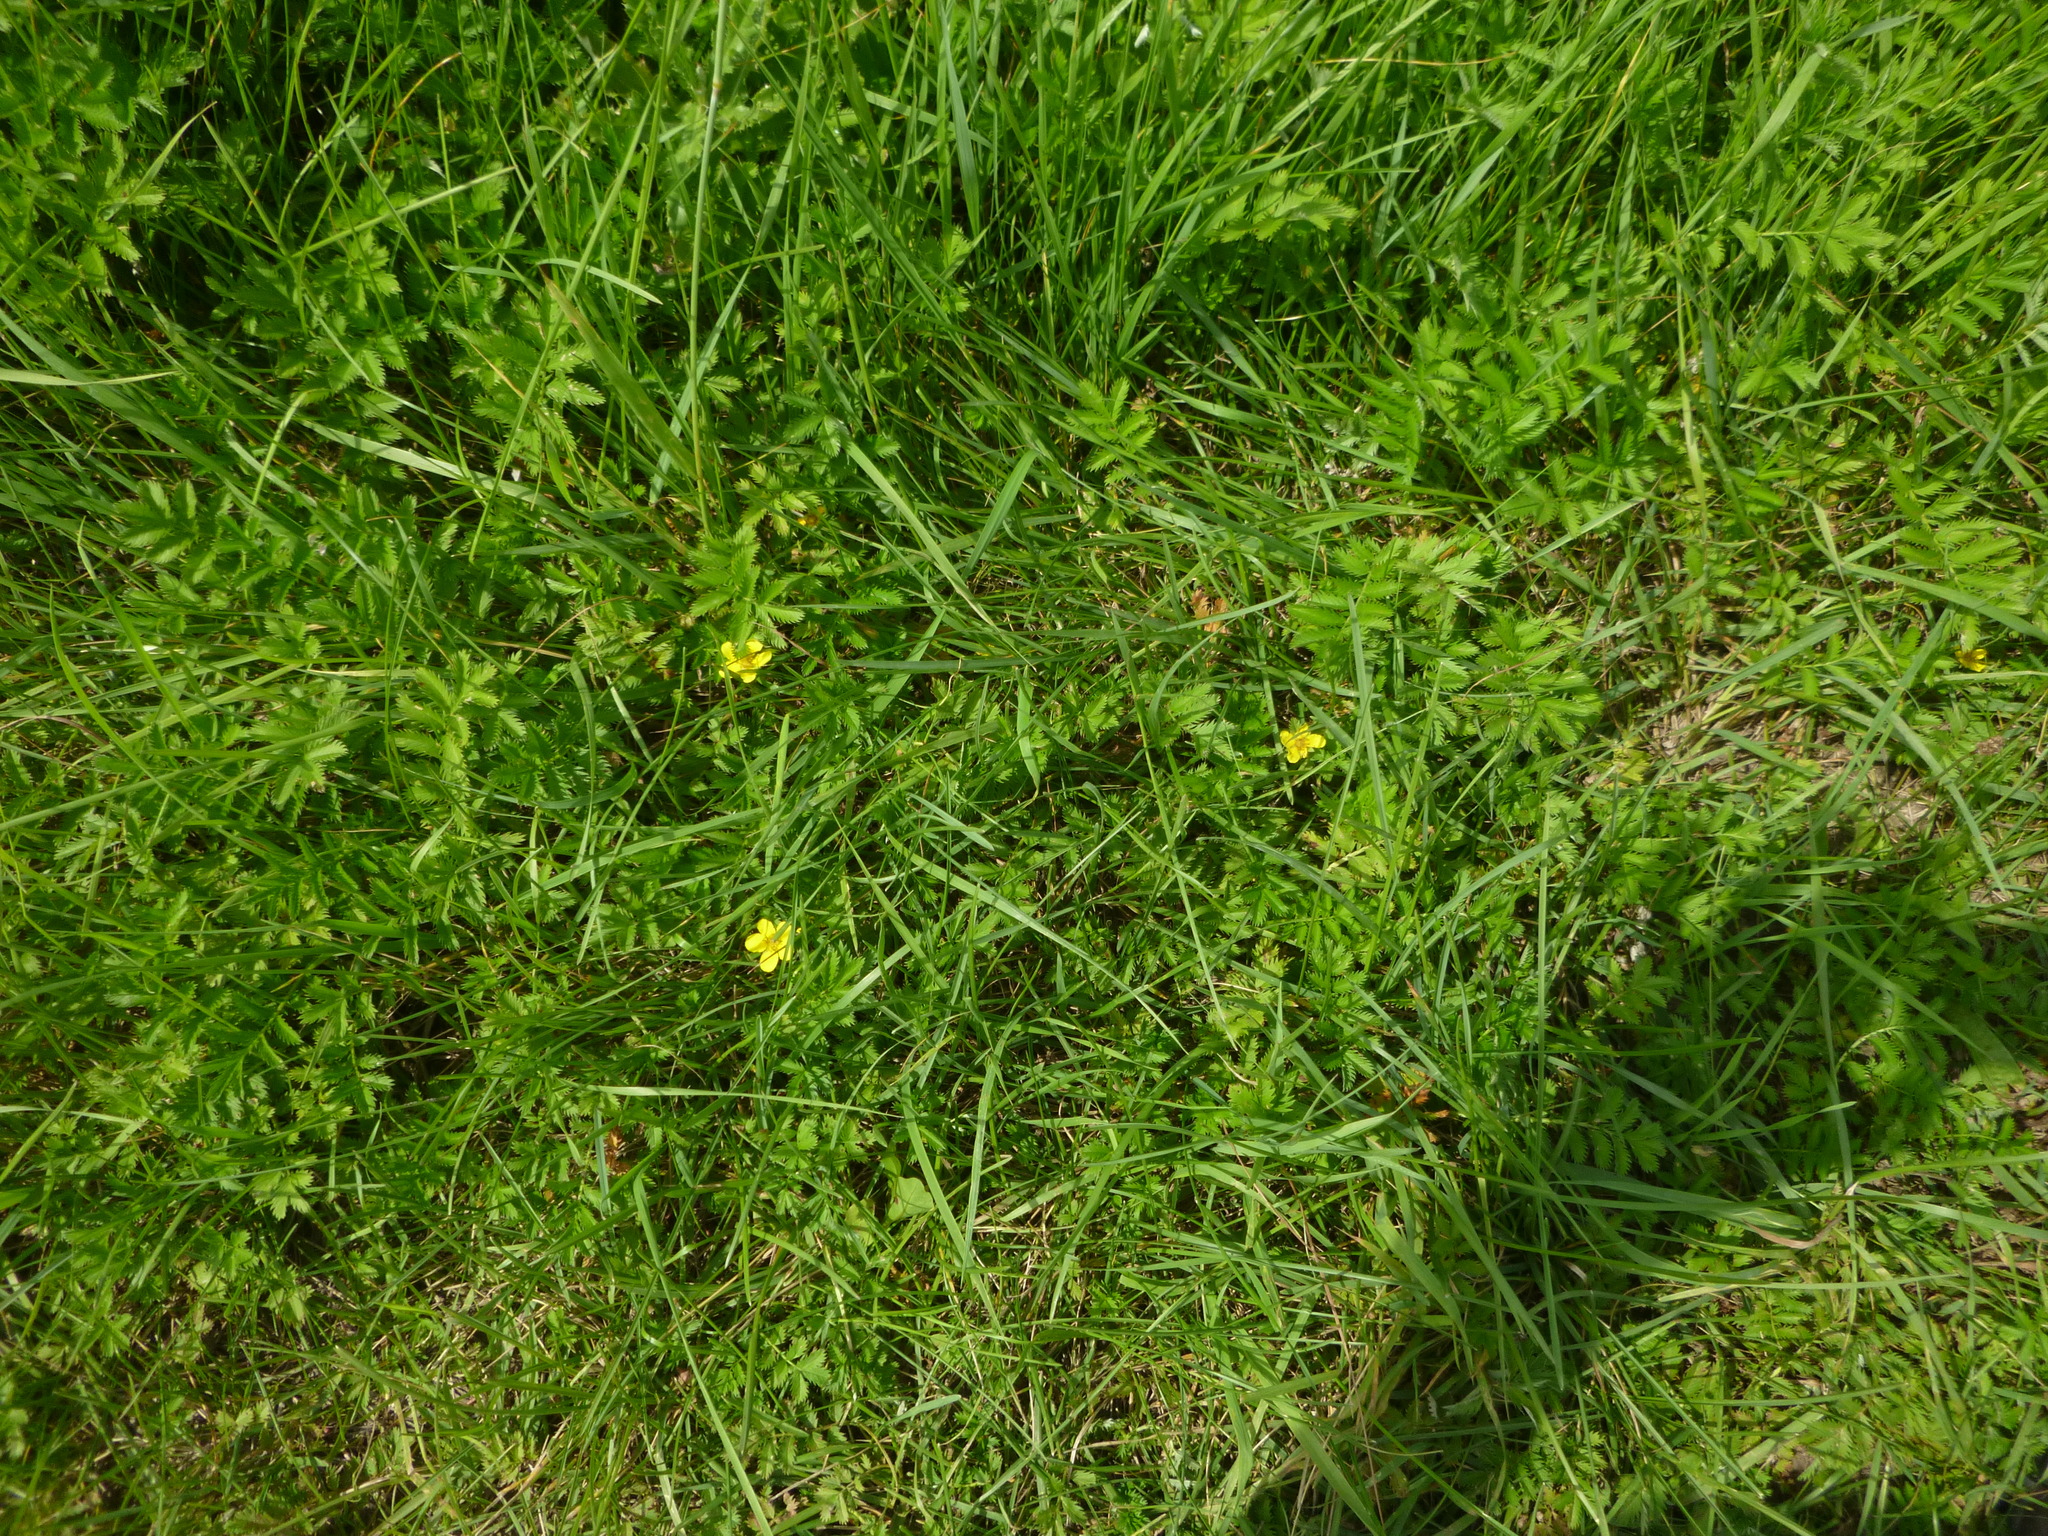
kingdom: Plantae
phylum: Tracheophyta
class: Magnoliopsida
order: Rosales
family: Rosaceae
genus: Argentina
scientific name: Argentina anserina
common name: Common silverweed
